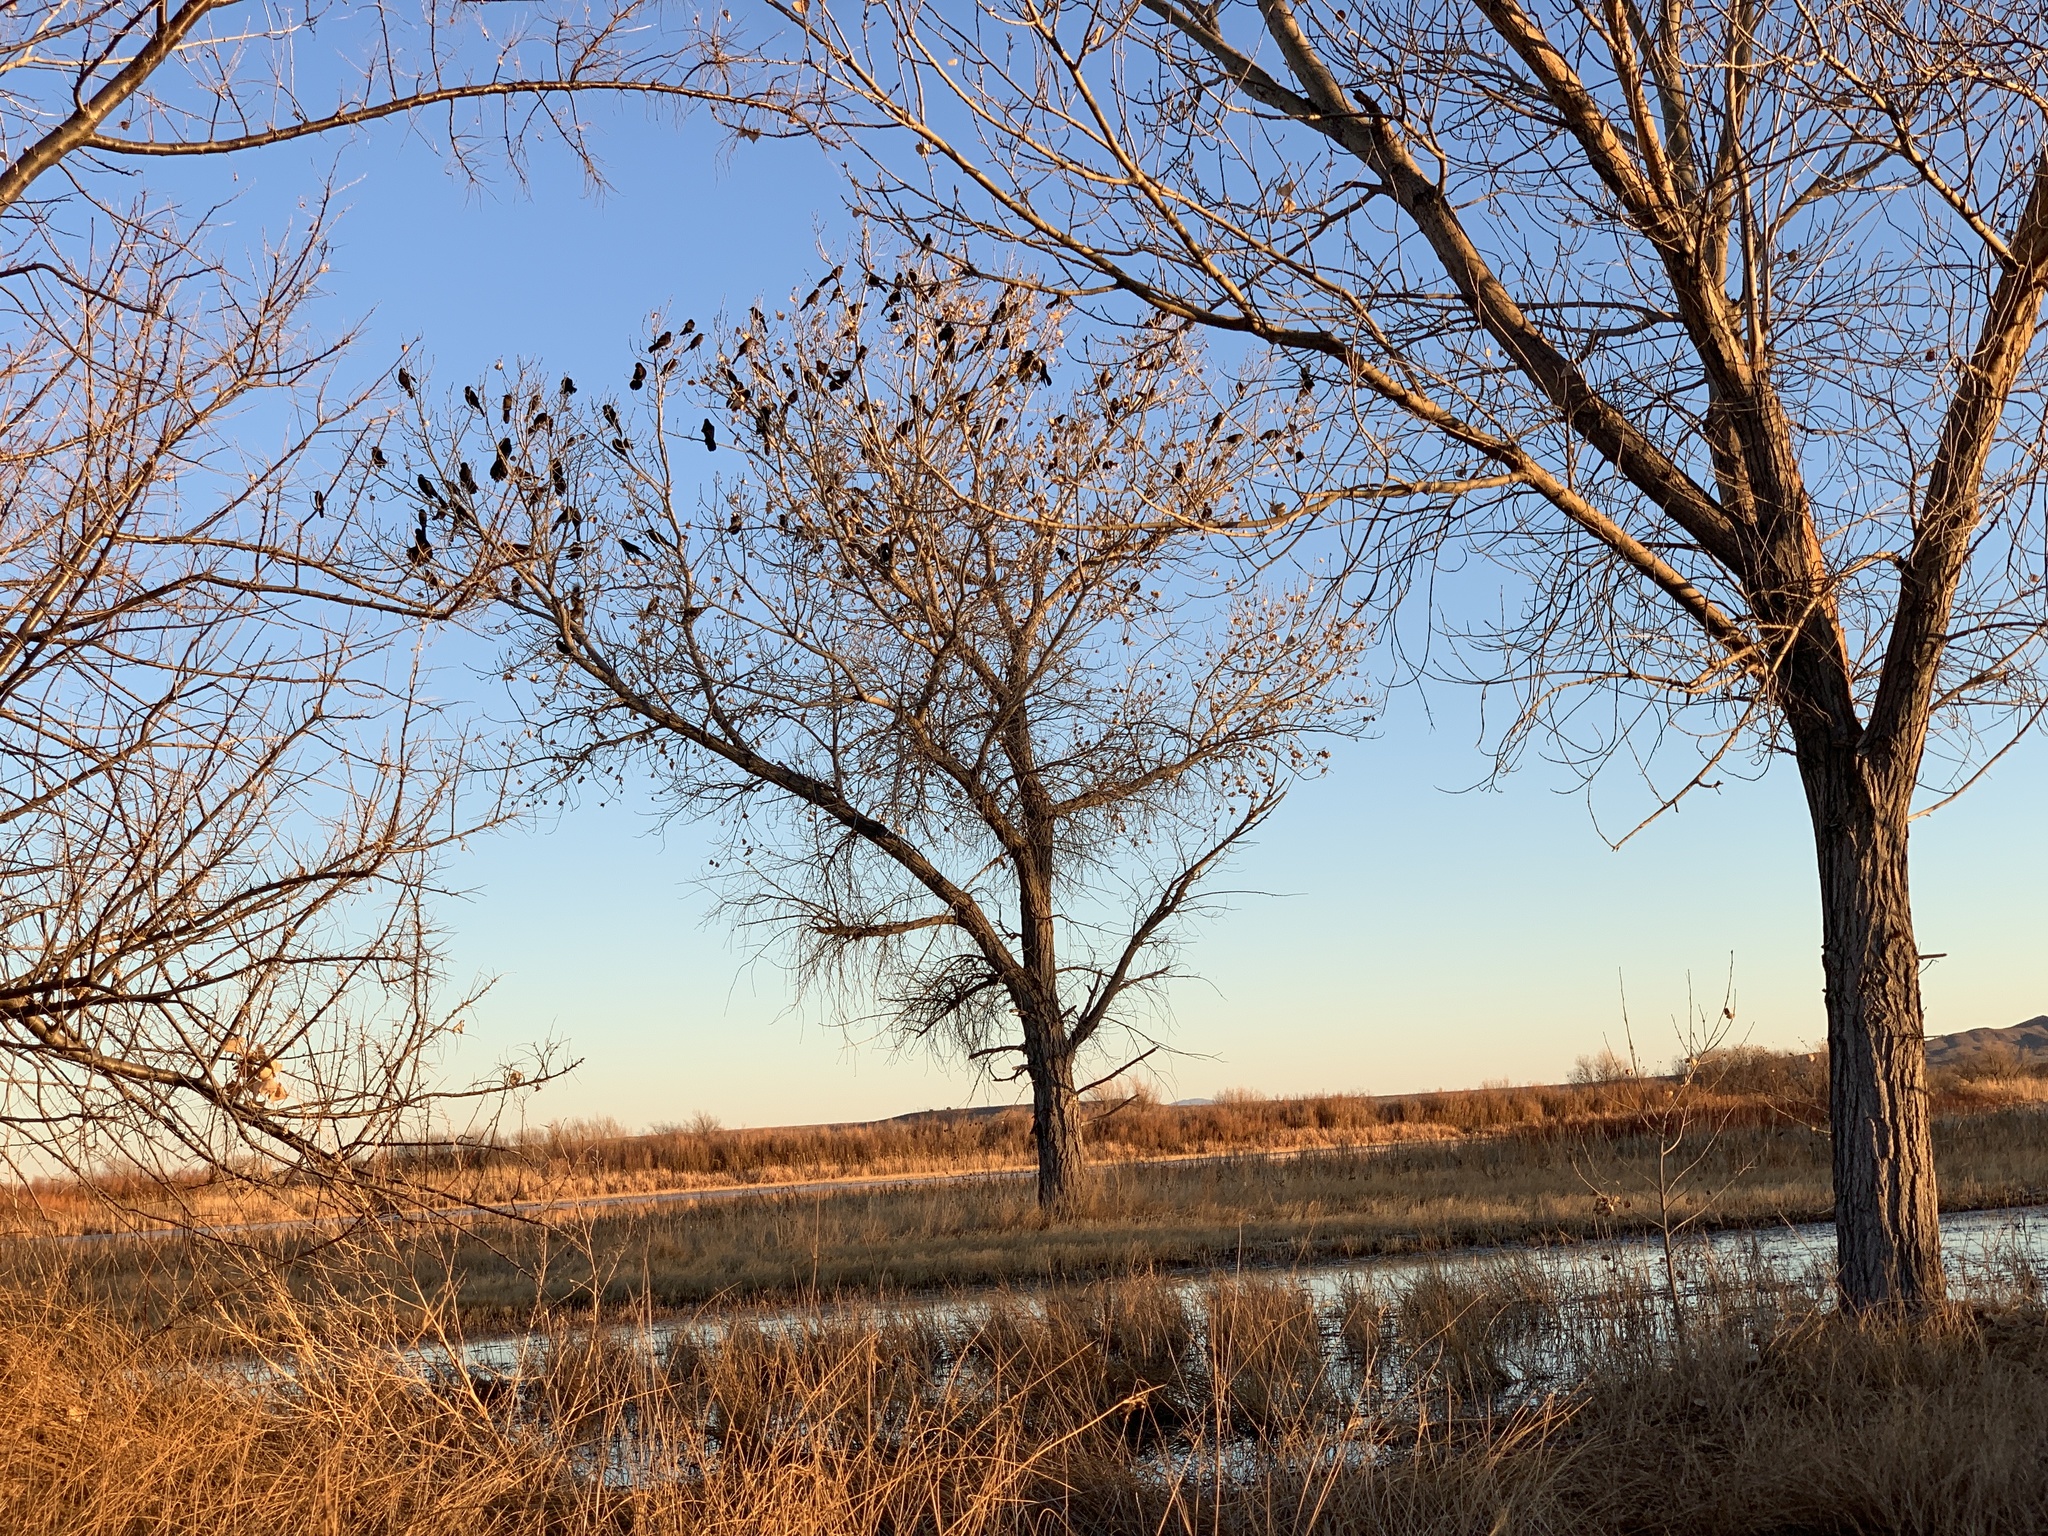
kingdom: Animalia
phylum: Chordata
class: Aves
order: Passeriformes
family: Icteridae
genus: Quiscalus
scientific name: Quiscalus mexicanus
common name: Great-tailed grackle
